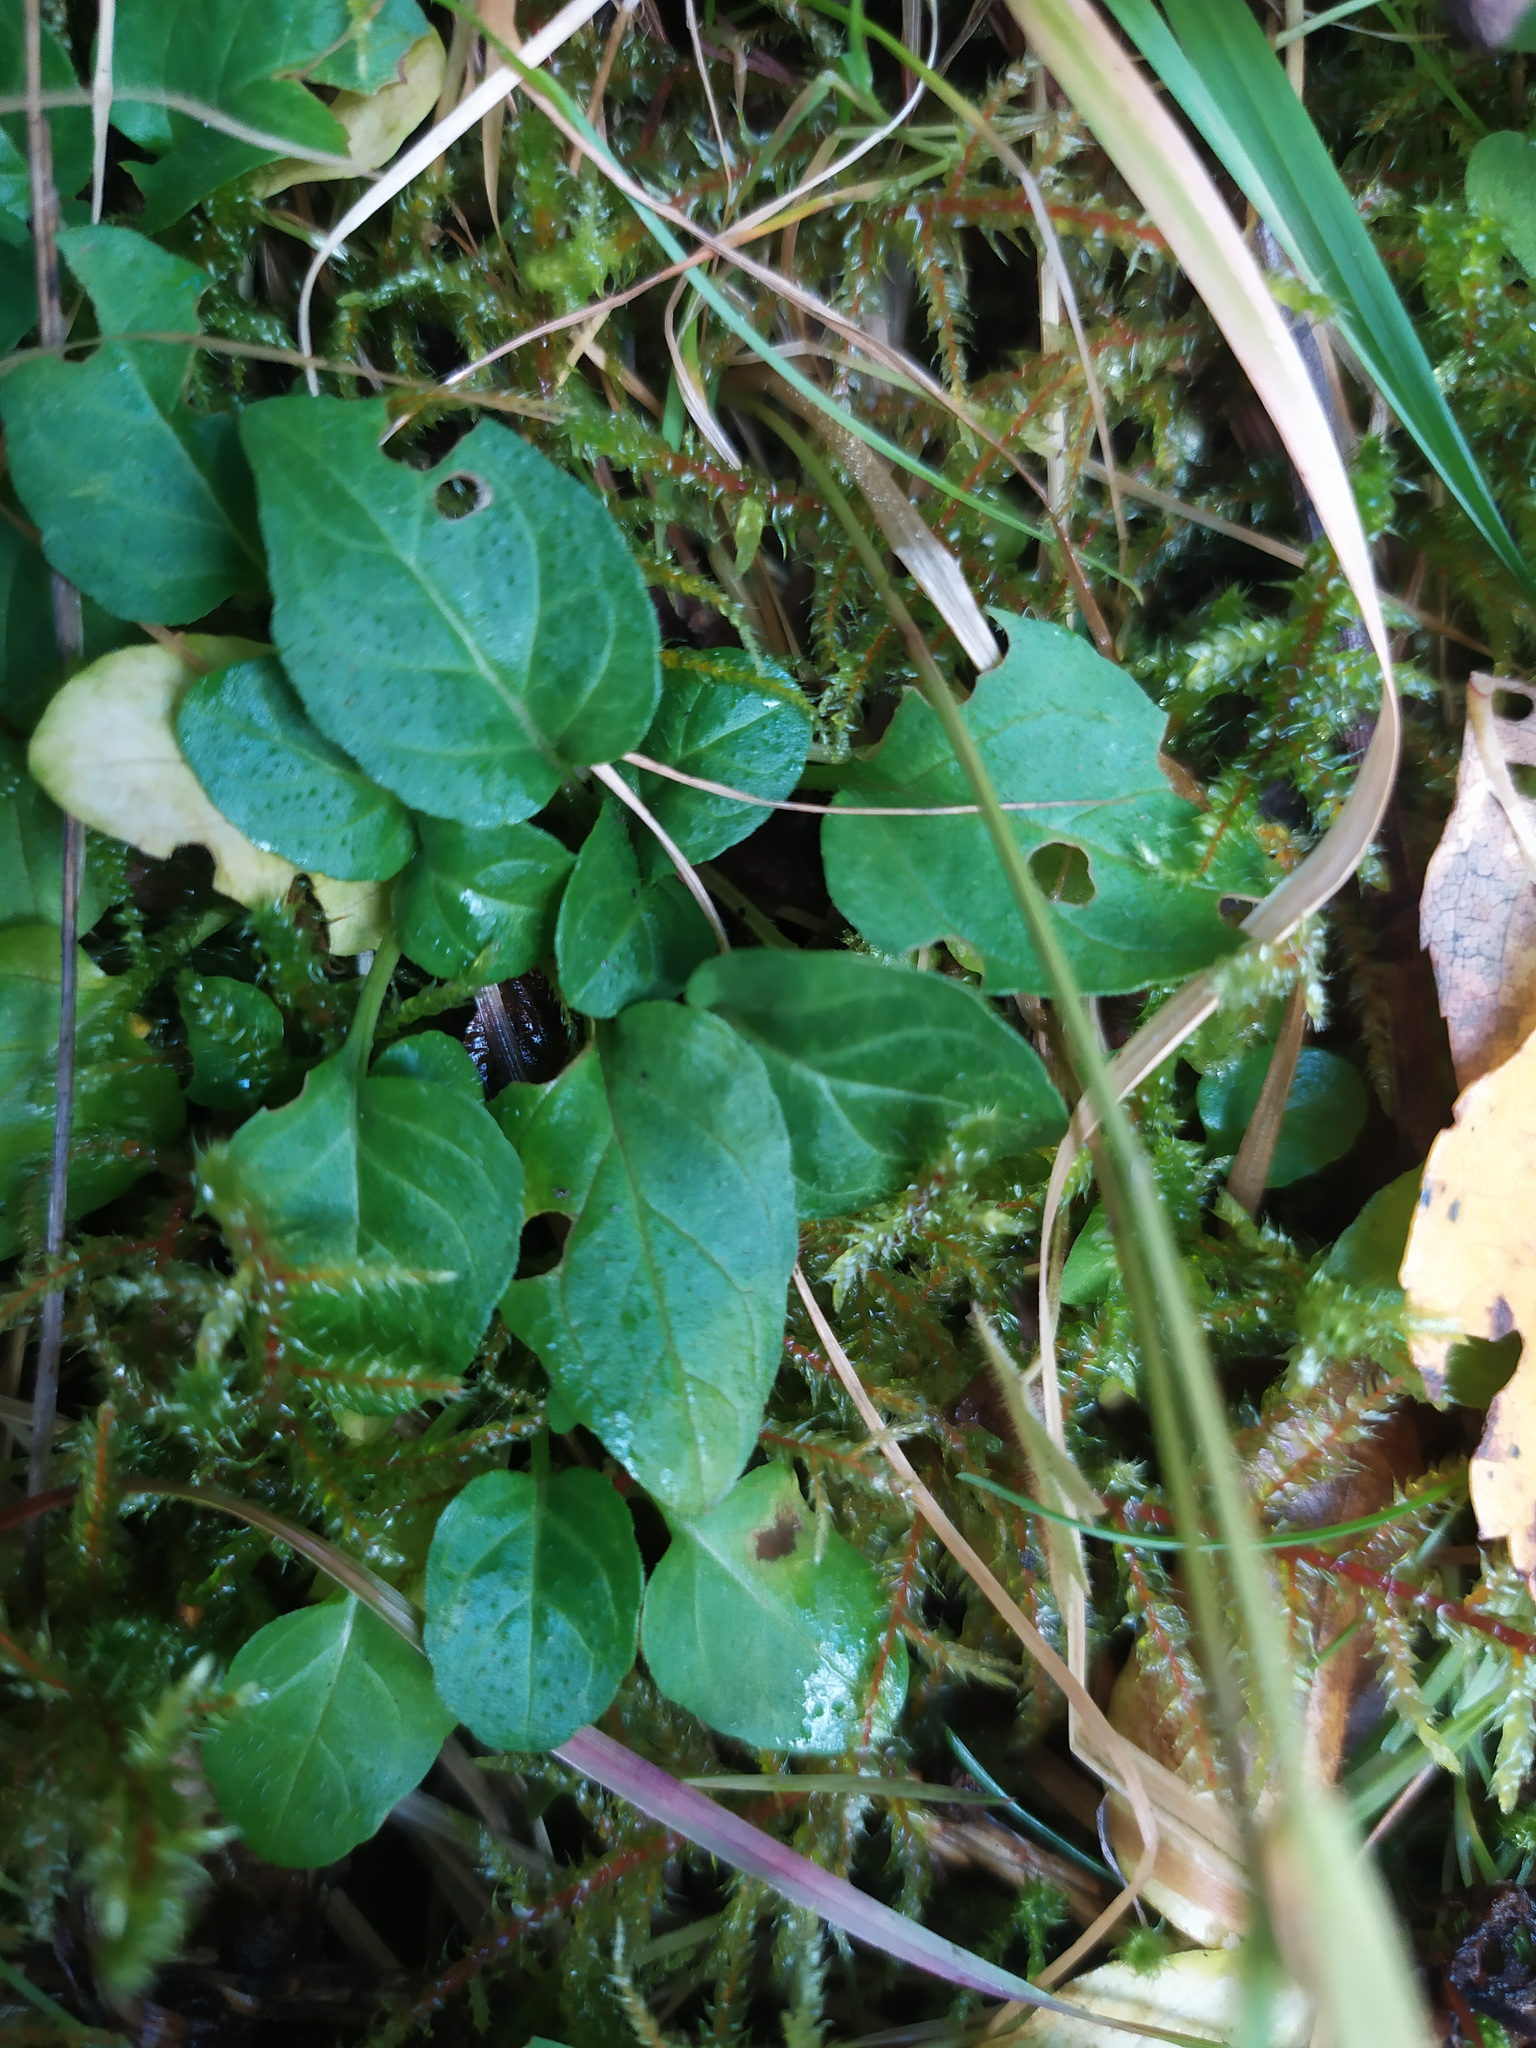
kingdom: Plantae
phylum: Tracheophyta
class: Magnoliopsida
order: Lamiales
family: Lamiaceae
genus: Prunella
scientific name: Prunella vulgaris
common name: Heal-all
